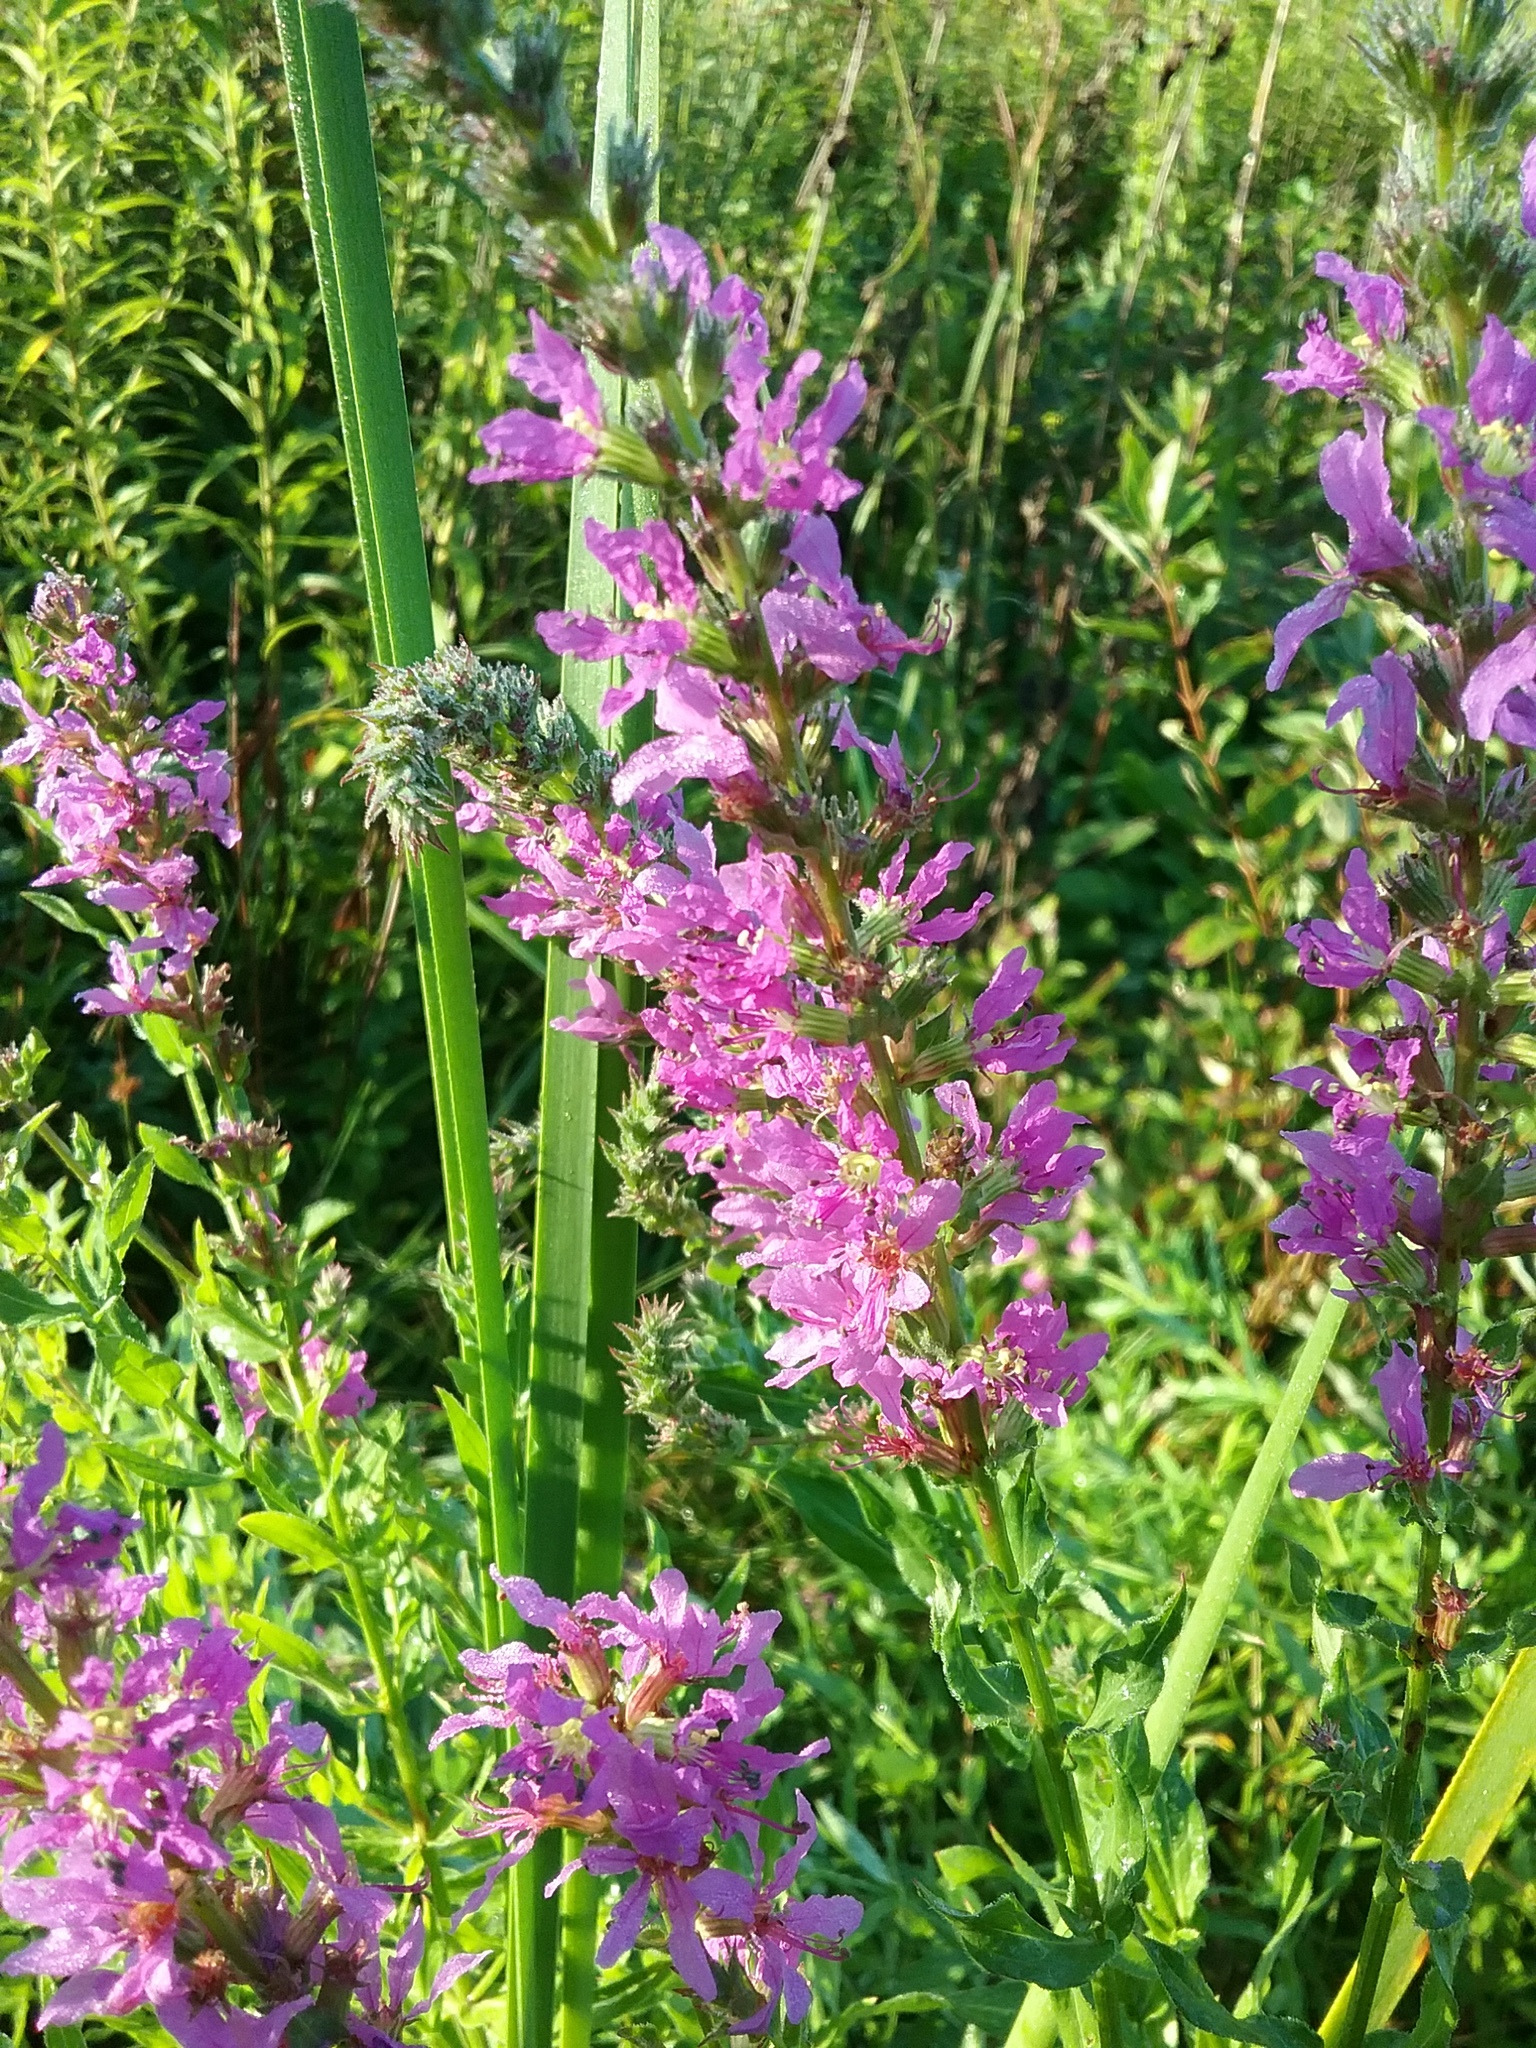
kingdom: Plantae
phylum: Tracheophyta
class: Magnoliopsida
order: Myrtales
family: Lythraceae
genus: Lythrum
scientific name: Lythrum salicaria
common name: Purple loosestrife
